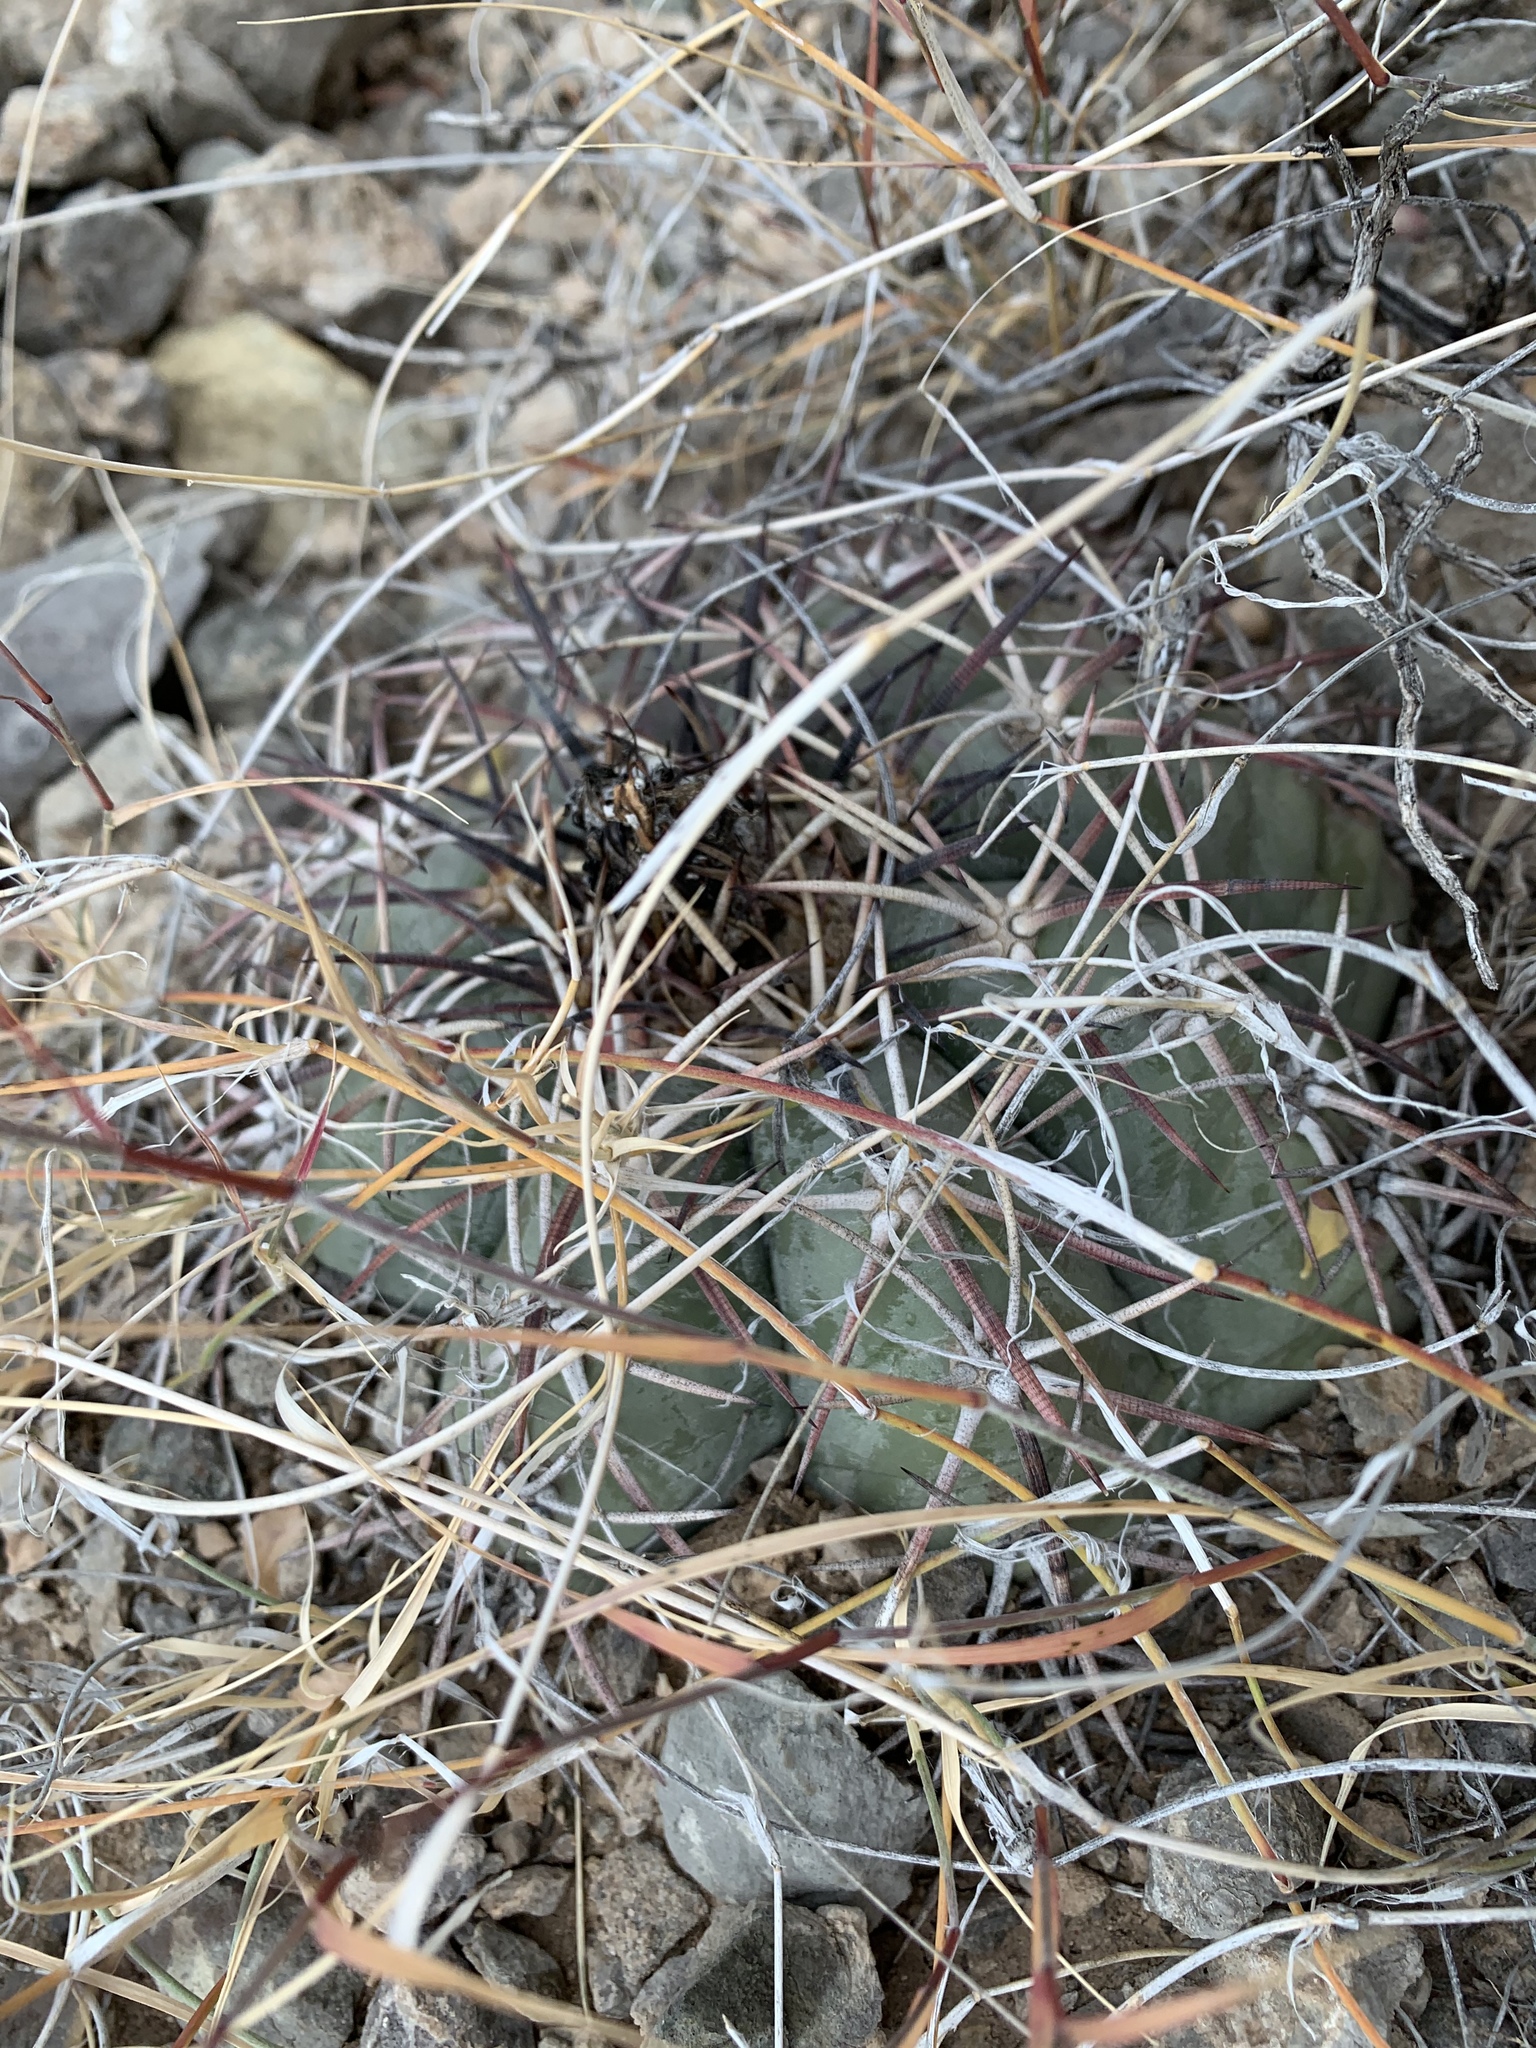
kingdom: Plantae
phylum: Tracheophyta
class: Magnoliopsida
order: Caryophyllales
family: Cactaceae
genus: Echinocactus
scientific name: Echinocactus horizonthalonius
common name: Devilshead
